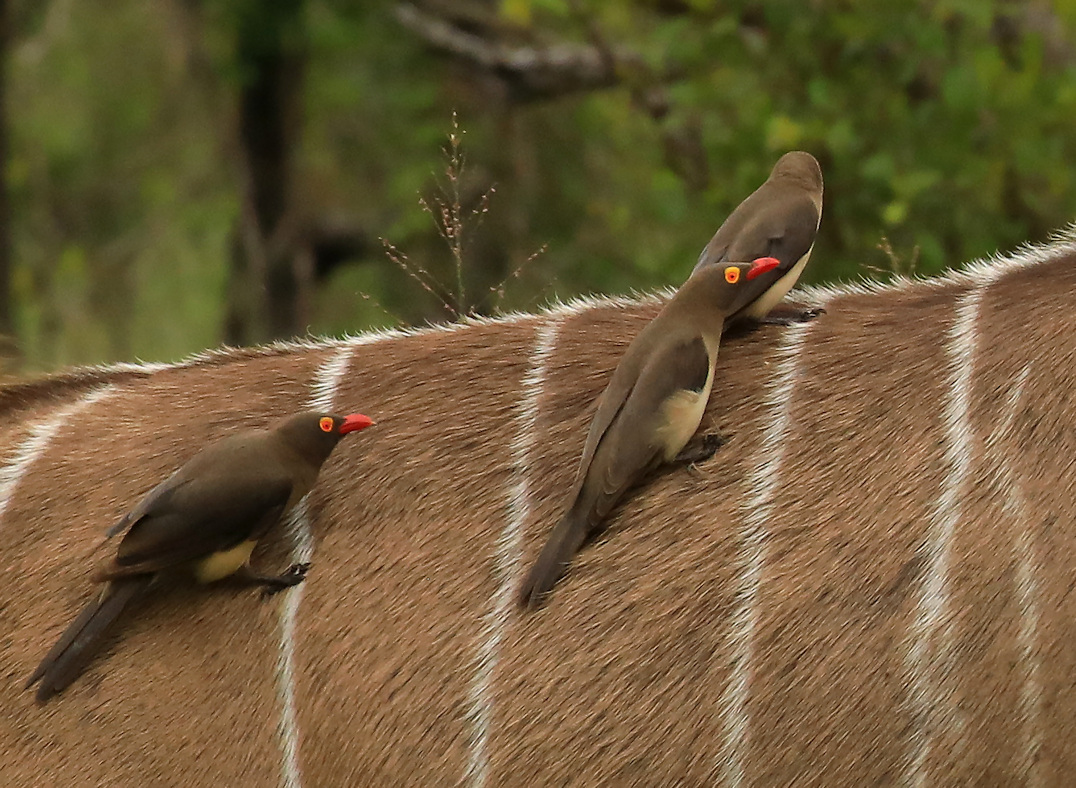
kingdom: Animalia
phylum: Chordata
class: Aves
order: Passeriformes
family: Buphagidae
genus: Buphagus
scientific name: Buphagus erythrorhynchus
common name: Red-billed oxpecker
